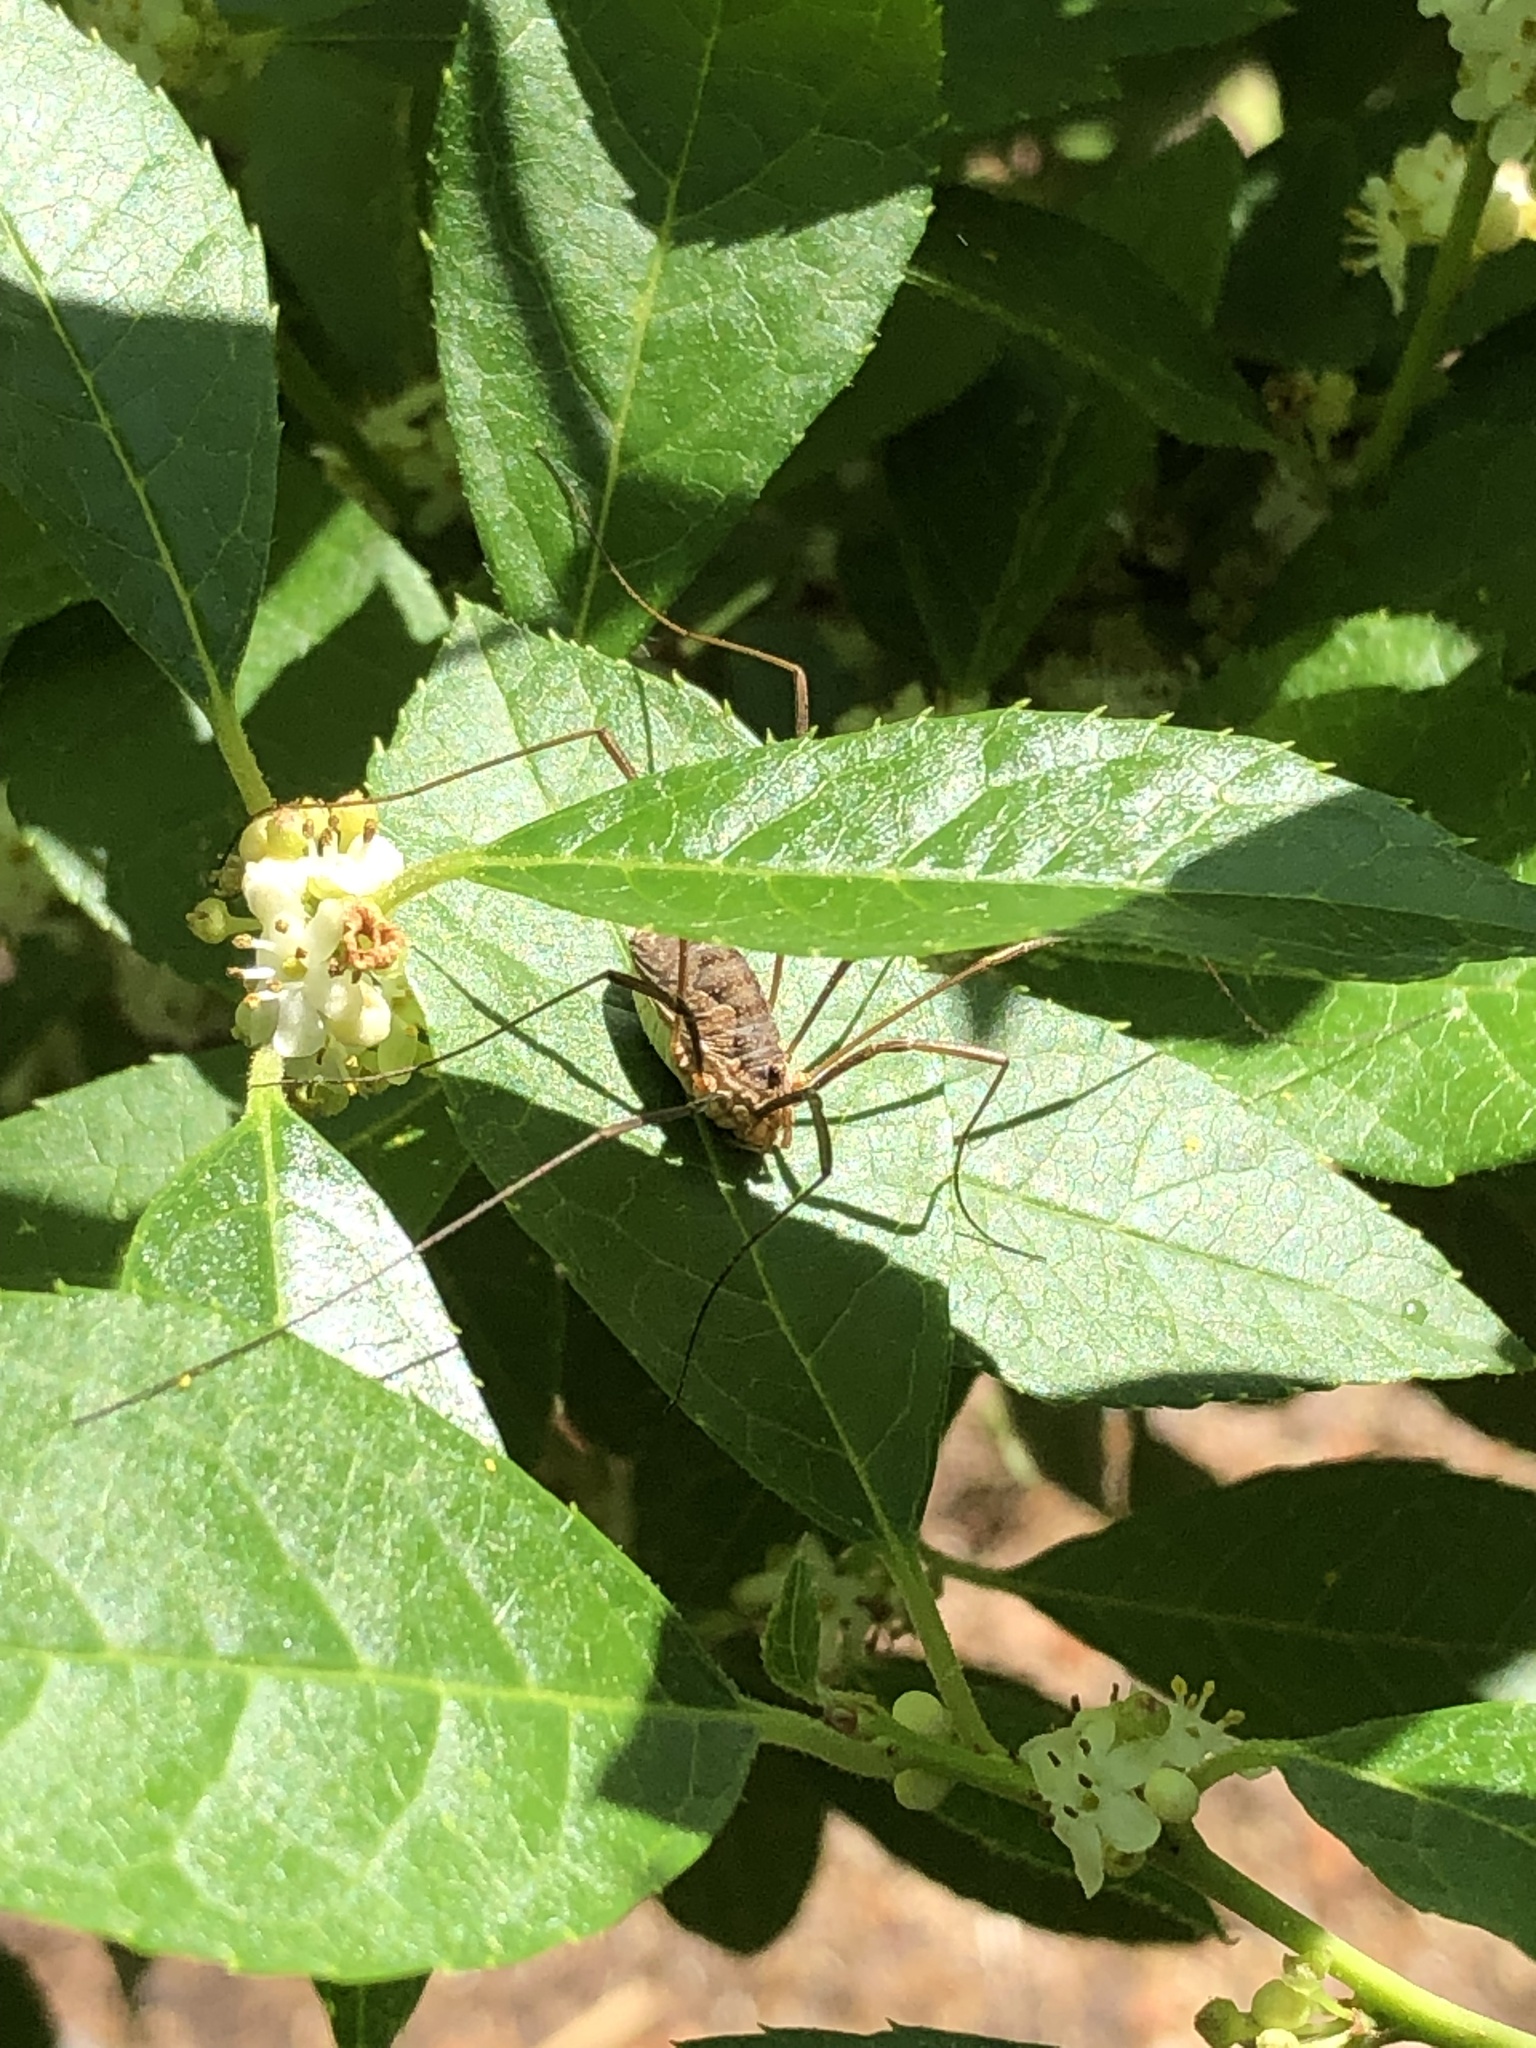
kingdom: Animalia
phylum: Arthropoda
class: Arachnida
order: Opiliones
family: Phalangiidae
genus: Phalangium
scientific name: Phalangium opilio
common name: Daddy longleg
